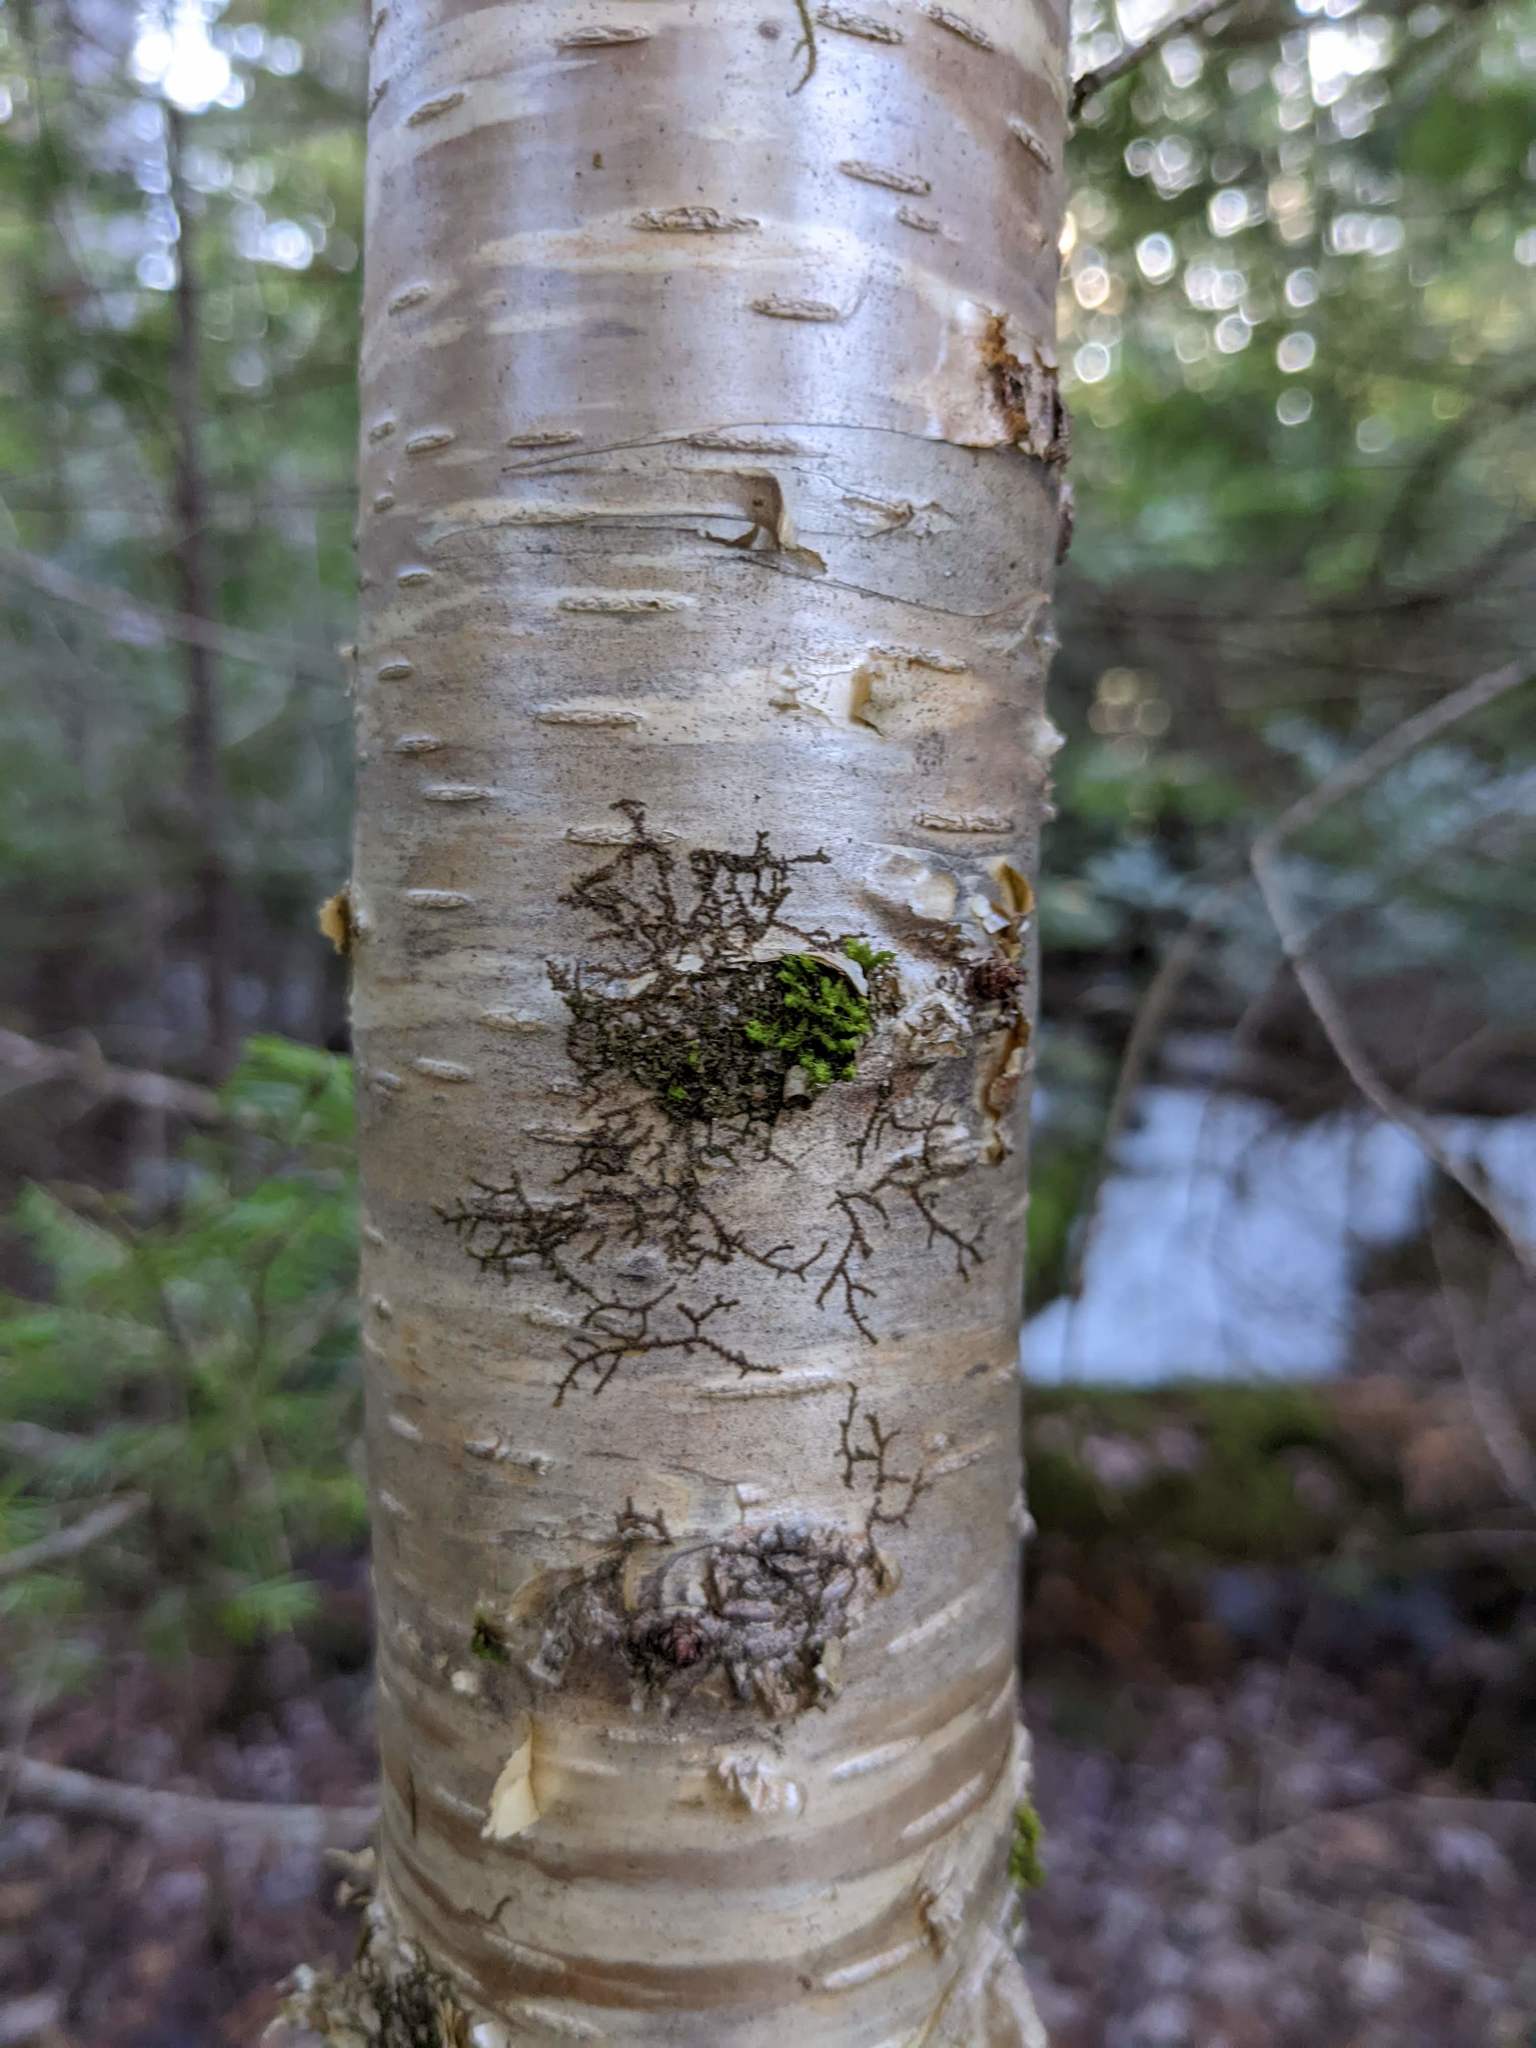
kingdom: Plantae
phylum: Marchantiophyta
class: Jungermanniopsida
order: Porellales
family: Frullaniaceae
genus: Frullania
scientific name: Frullania eboracensis
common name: New york scalewort
